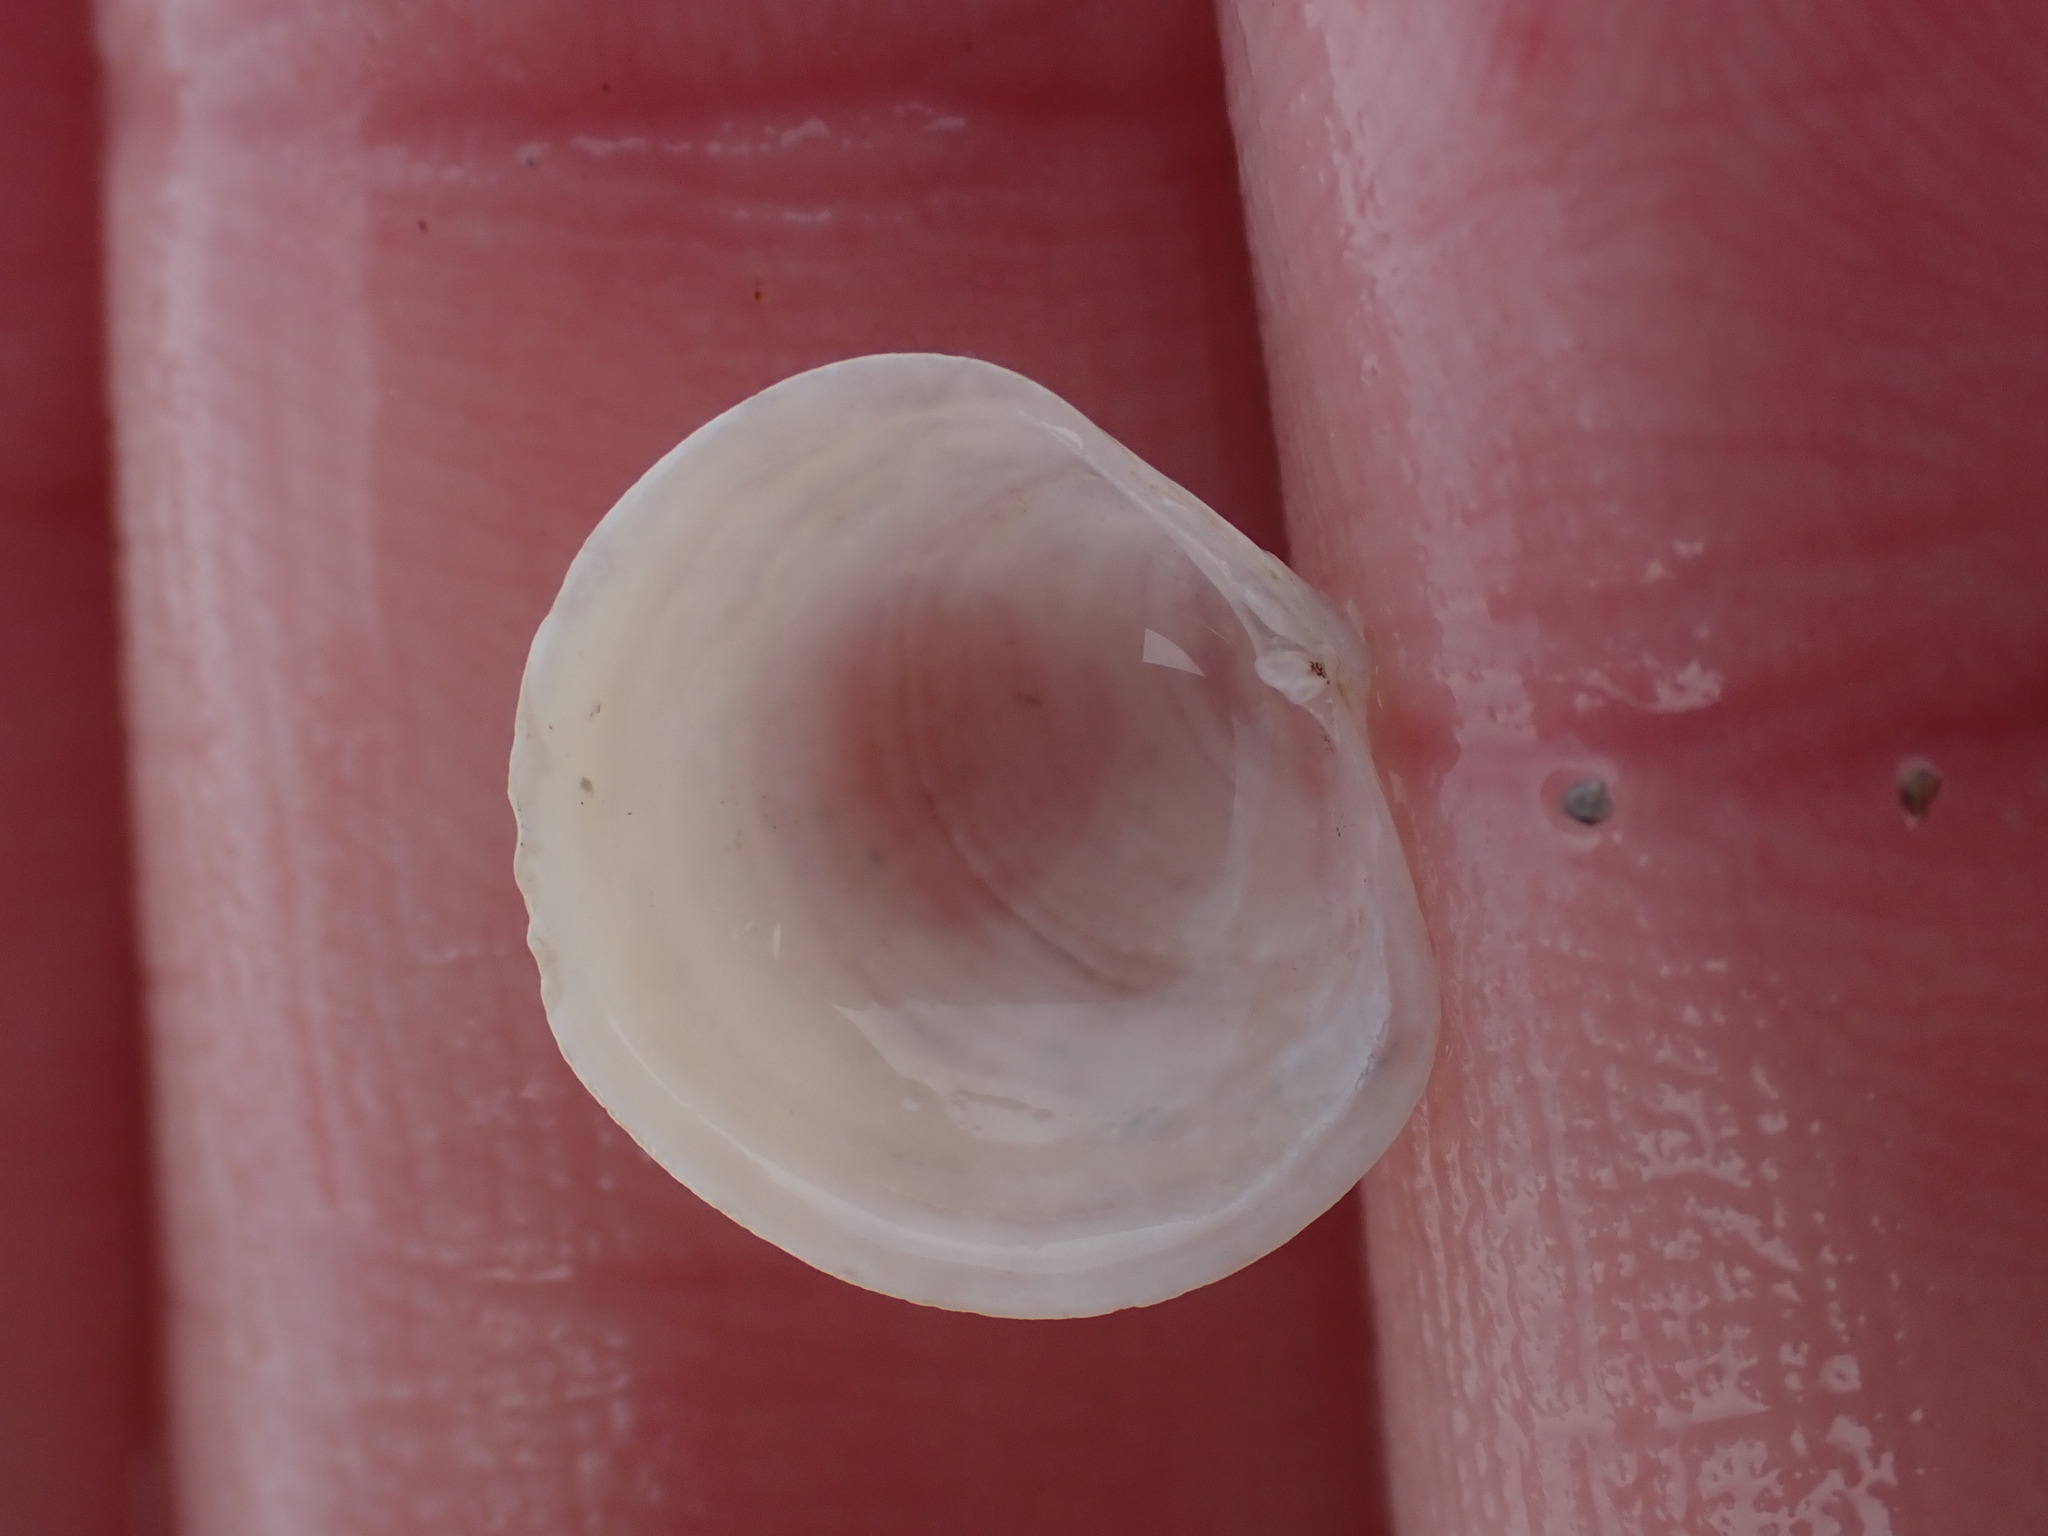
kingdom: Animalia
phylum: Mollusca
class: Bivalvia
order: Venerida
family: Ungulinidae
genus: Zemysia
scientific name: Zemysia zelandica
